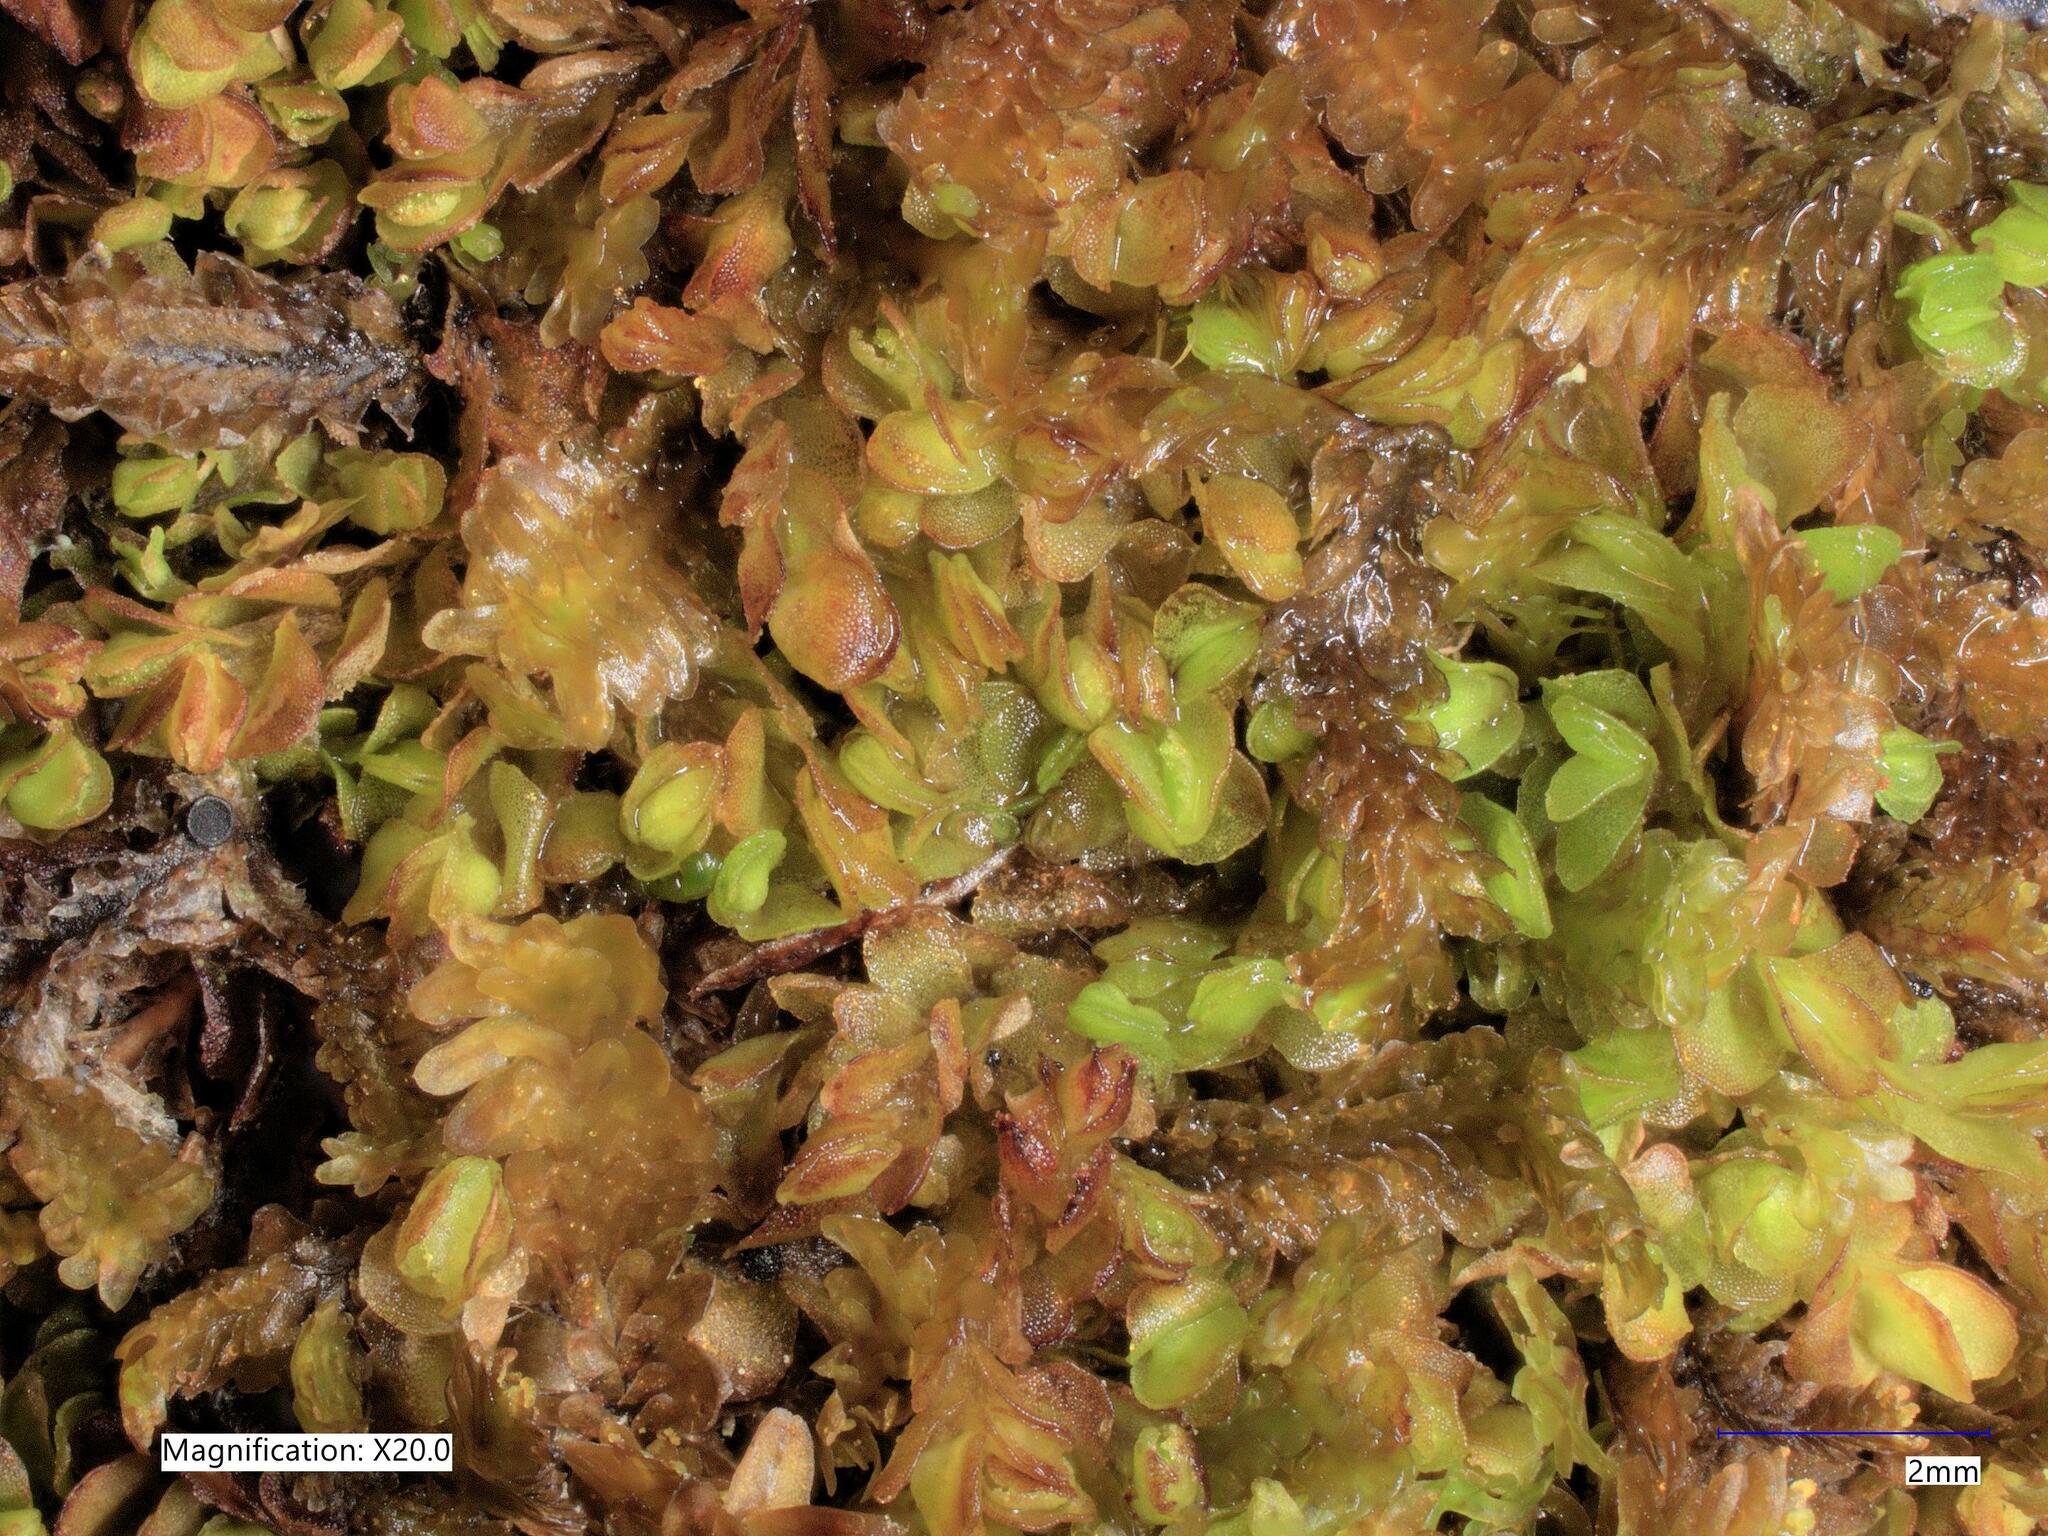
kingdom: Plantae
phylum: Marchantiophyta
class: Jungermanniopsida
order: Jungermanniales
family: Myliaceae
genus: Mylia
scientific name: Mylia taylorii
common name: Taylor s flapwort
